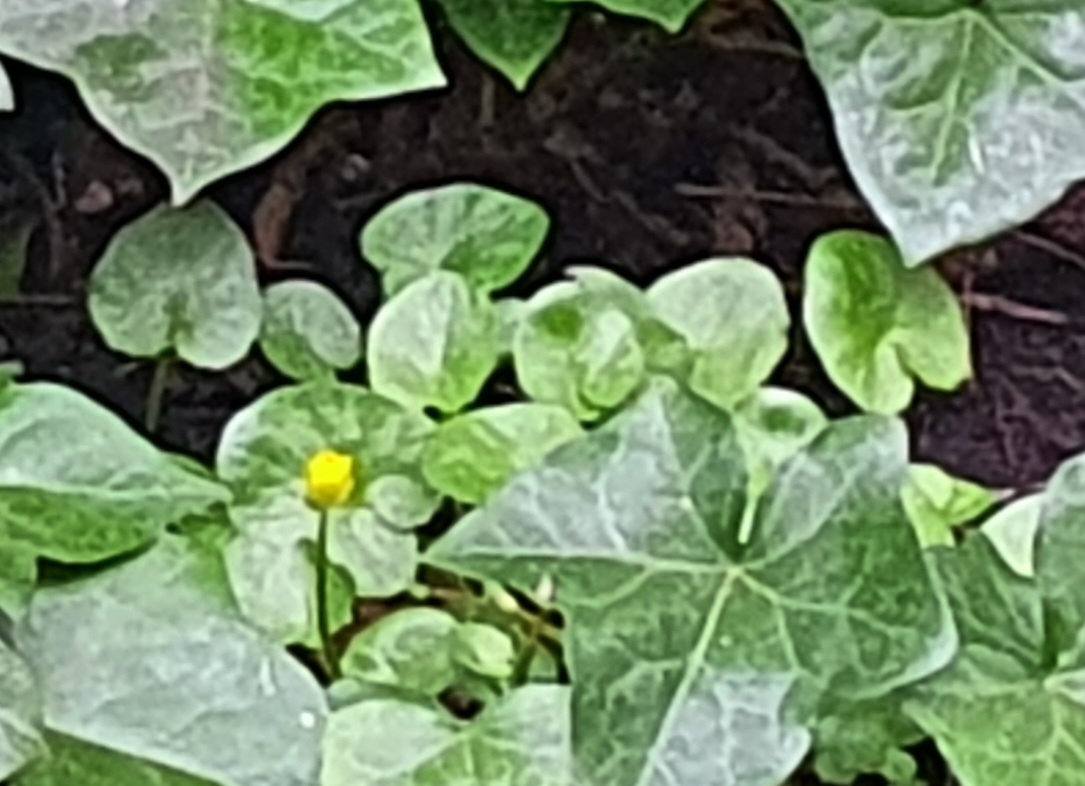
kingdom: Plantae
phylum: Tracheophyta
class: Magnoliopsida
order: Ranunculales
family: Ranunculaceae
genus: Ficaria
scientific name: Ficaria verna
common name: Lesser celandine
